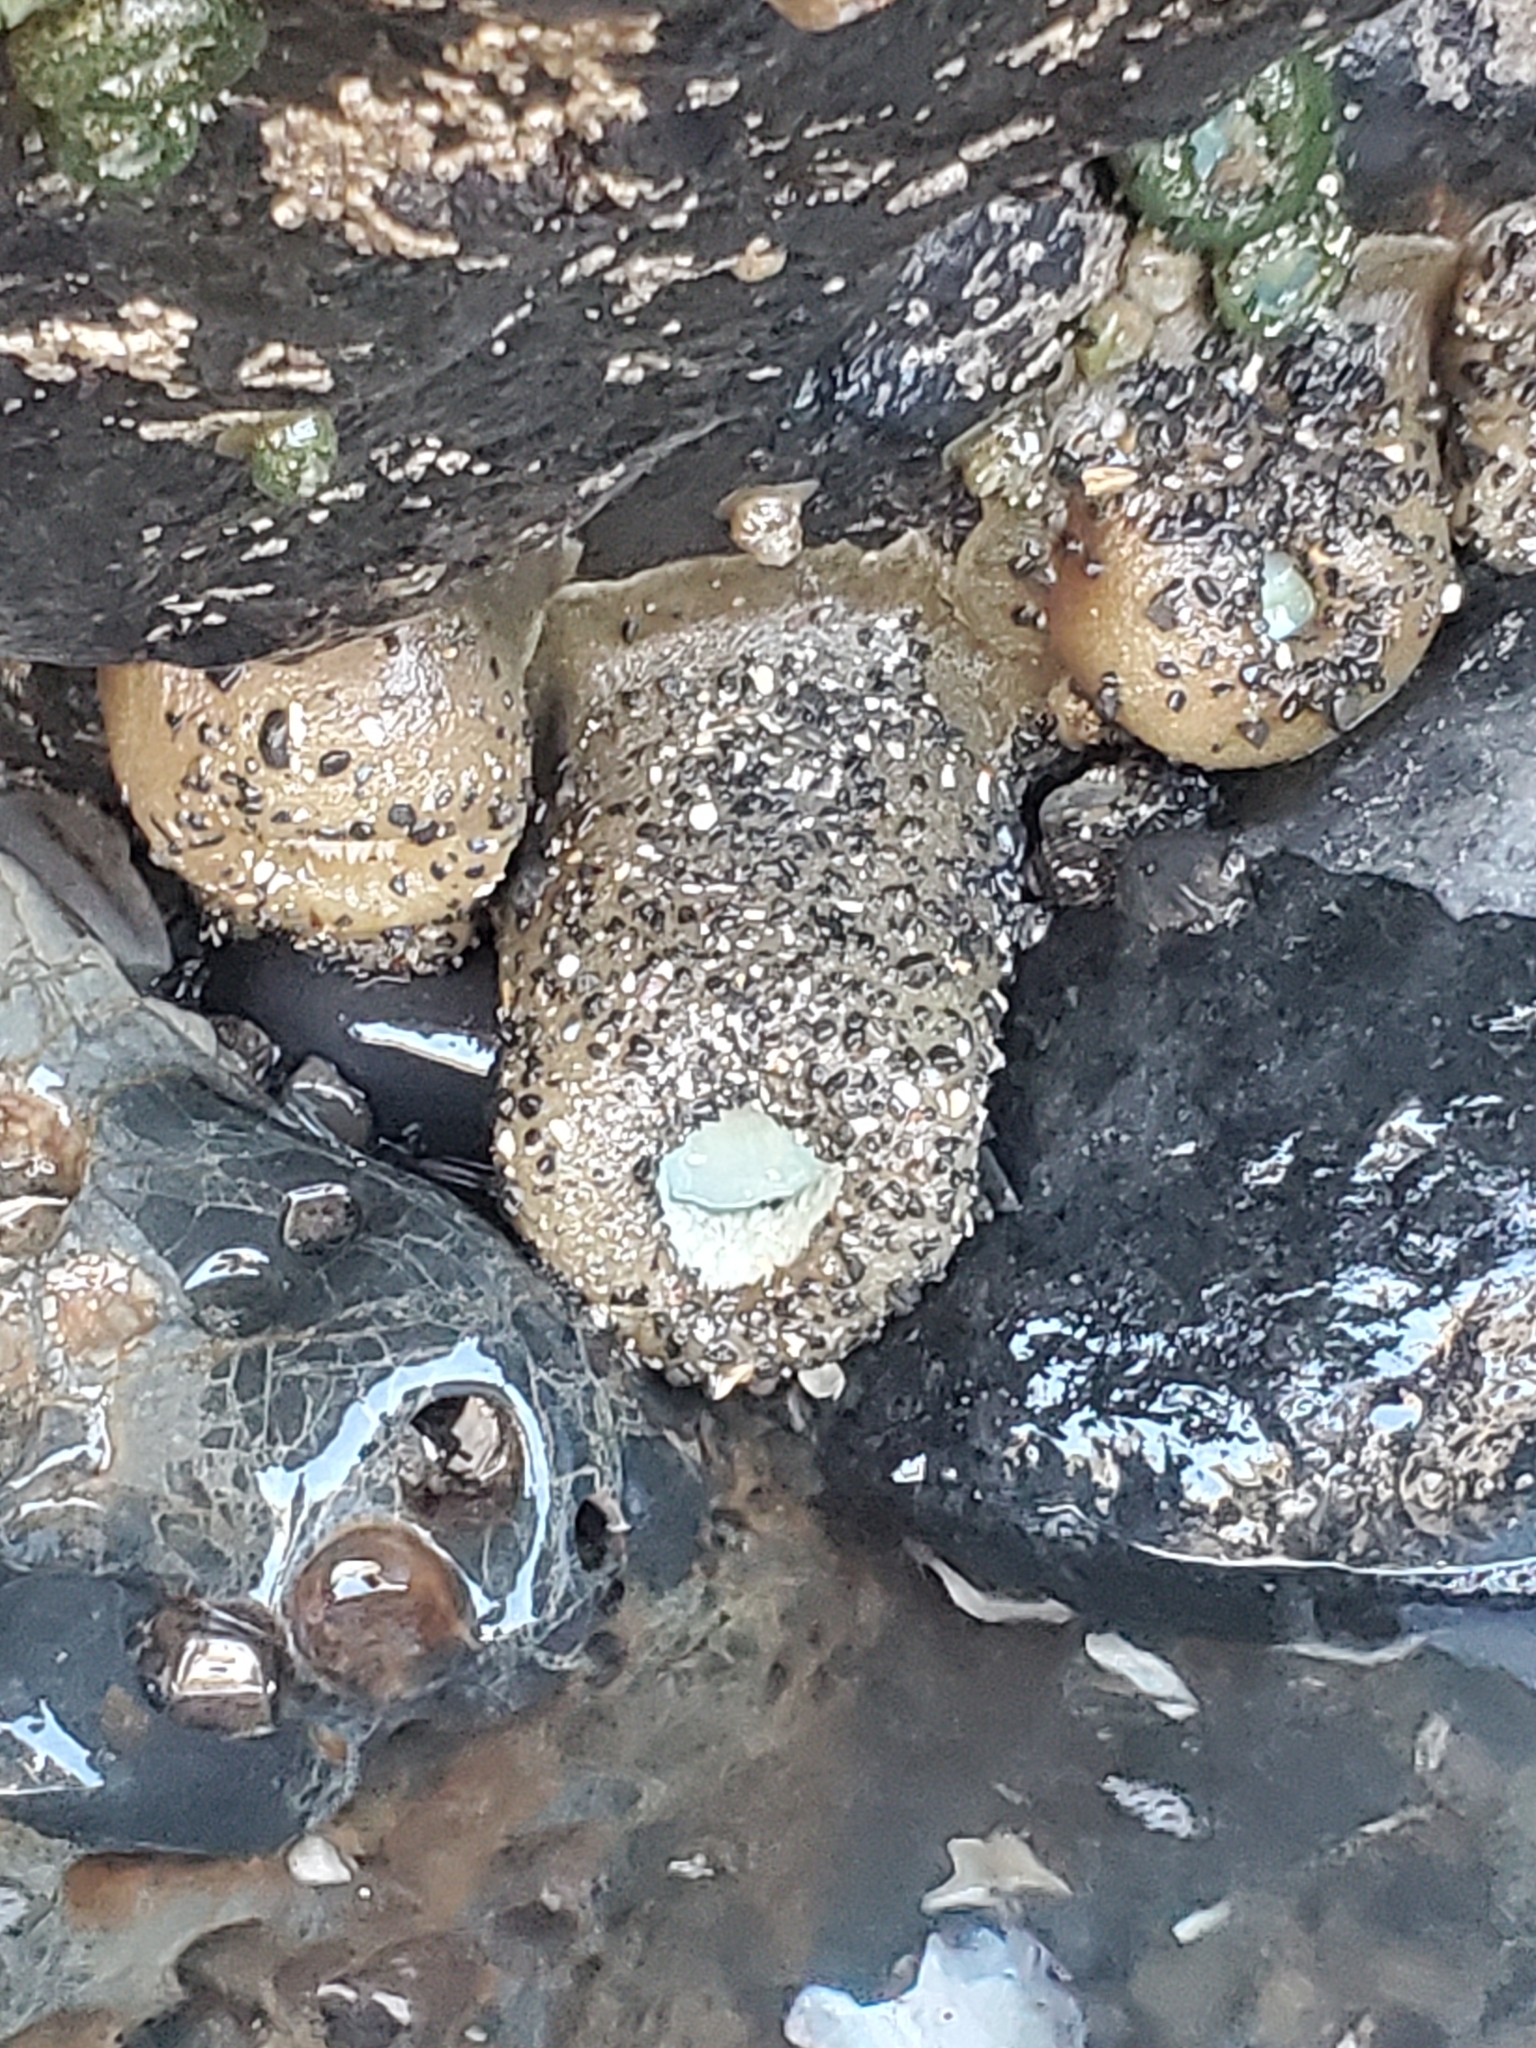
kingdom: Animalia
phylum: Cnidaria
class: Anthozoa
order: Actiniaria
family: Actiniidae
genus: Anthopleura
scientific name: Anthopleura xanthogrammica
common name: Giant green anemone
